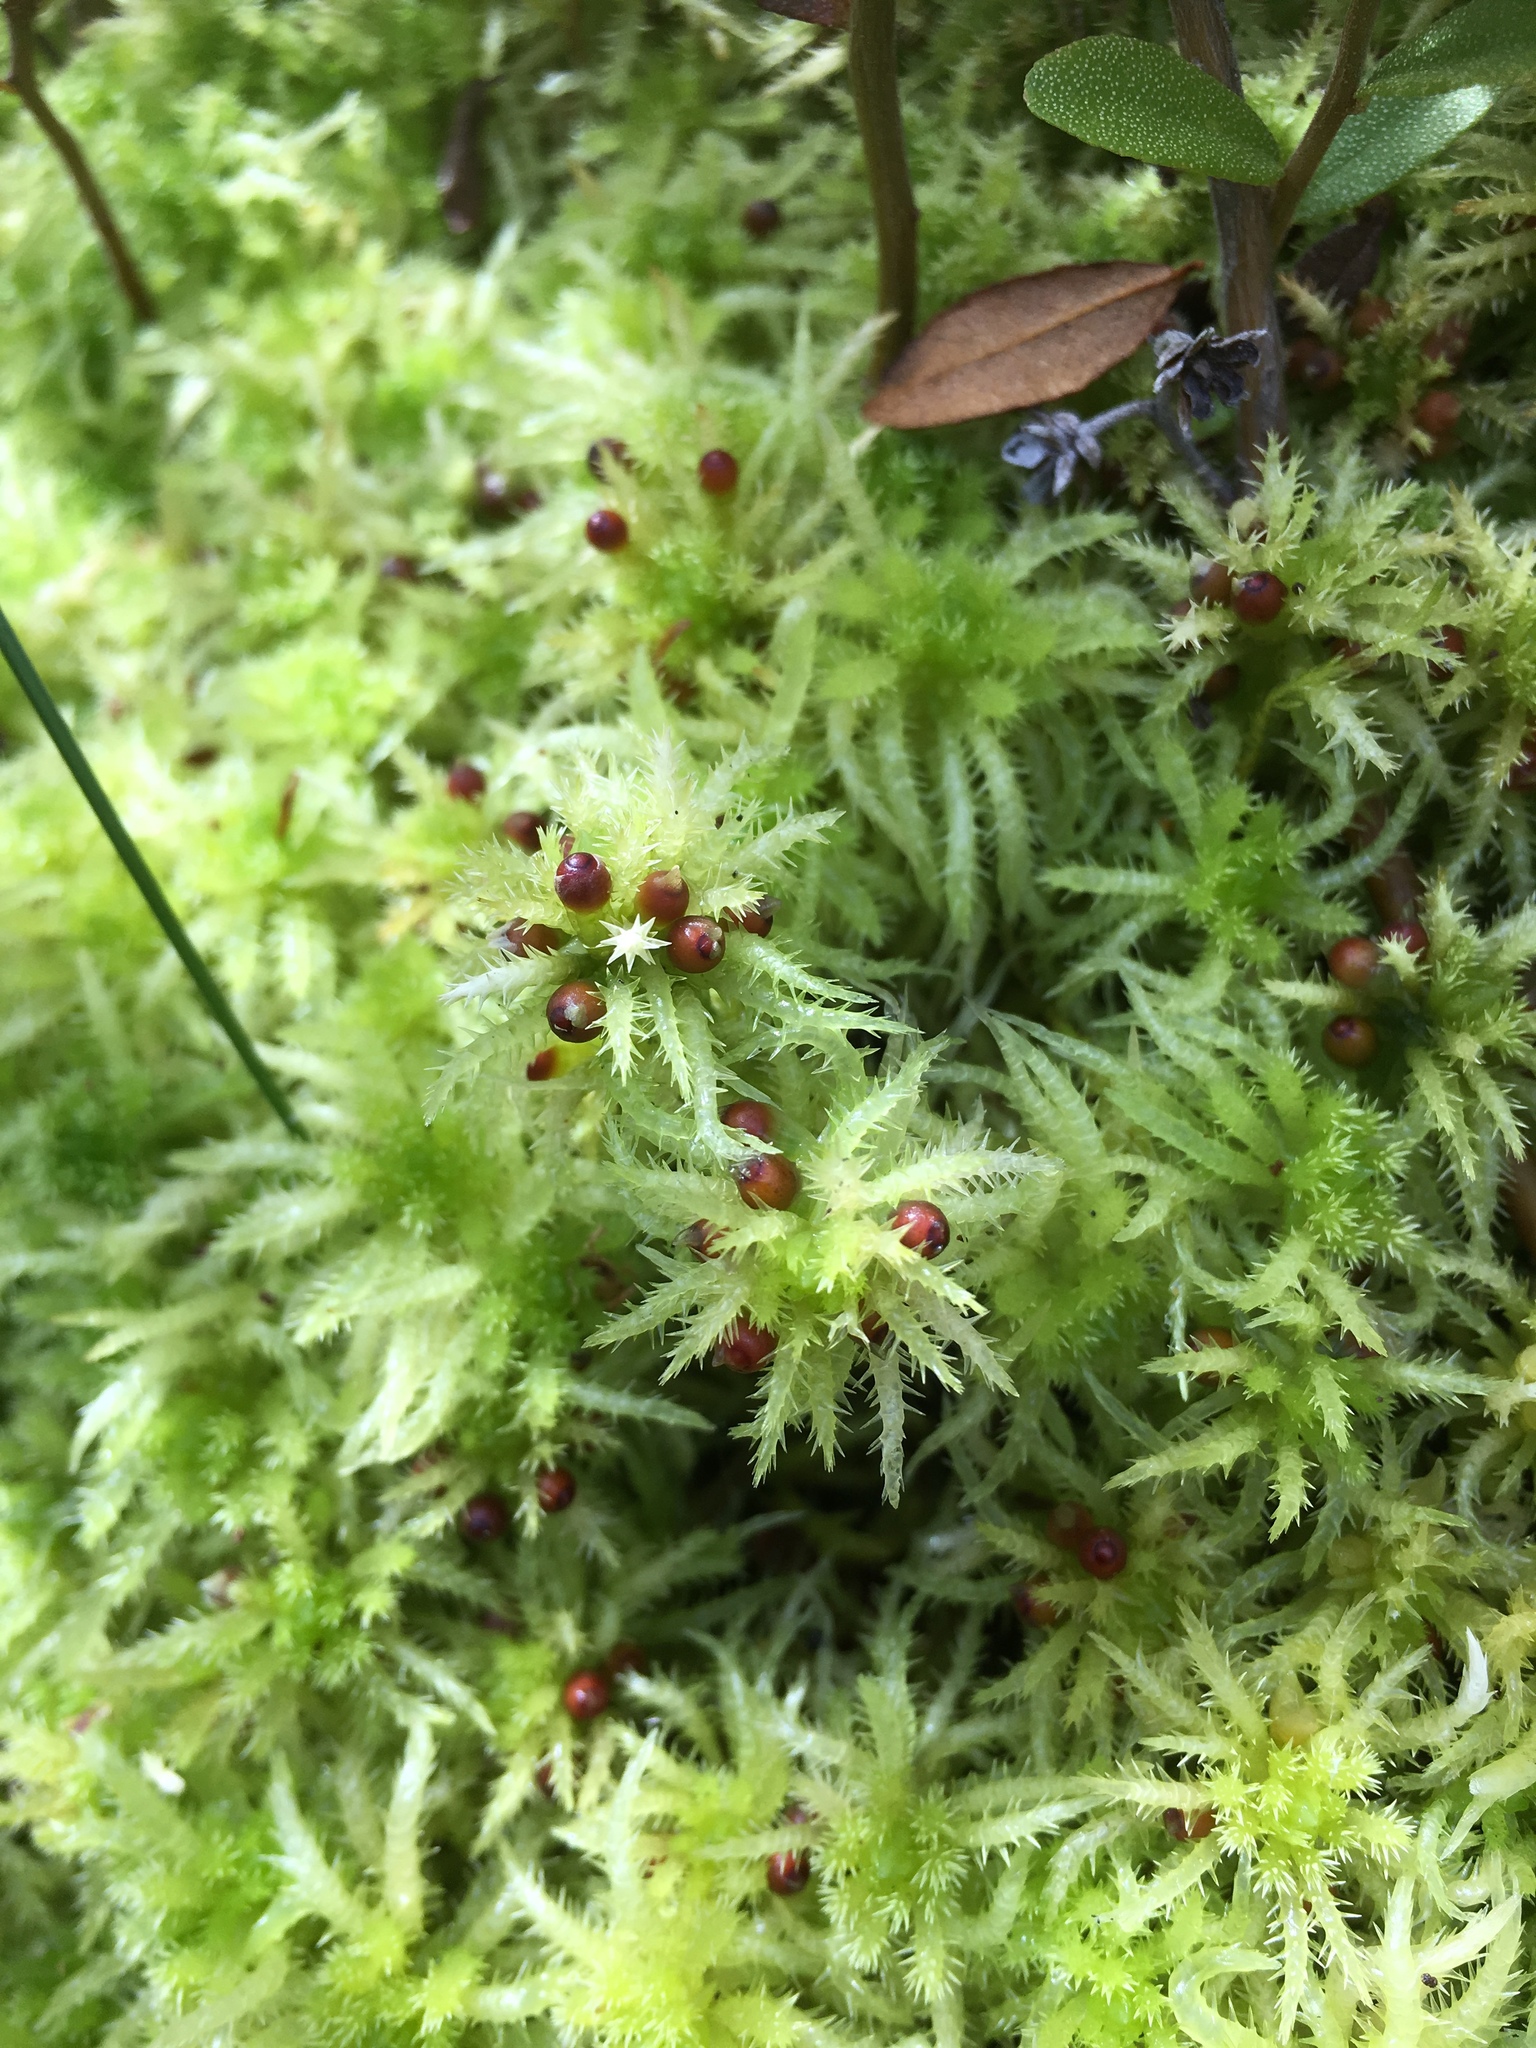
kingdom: Plantae
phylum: Bryophyta
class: Sphagnopsida
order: Sphagnales
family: Sphagnaceae
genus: Sphagnum
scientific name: Sphagnum squarrosum
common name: Shaggy peat moss
